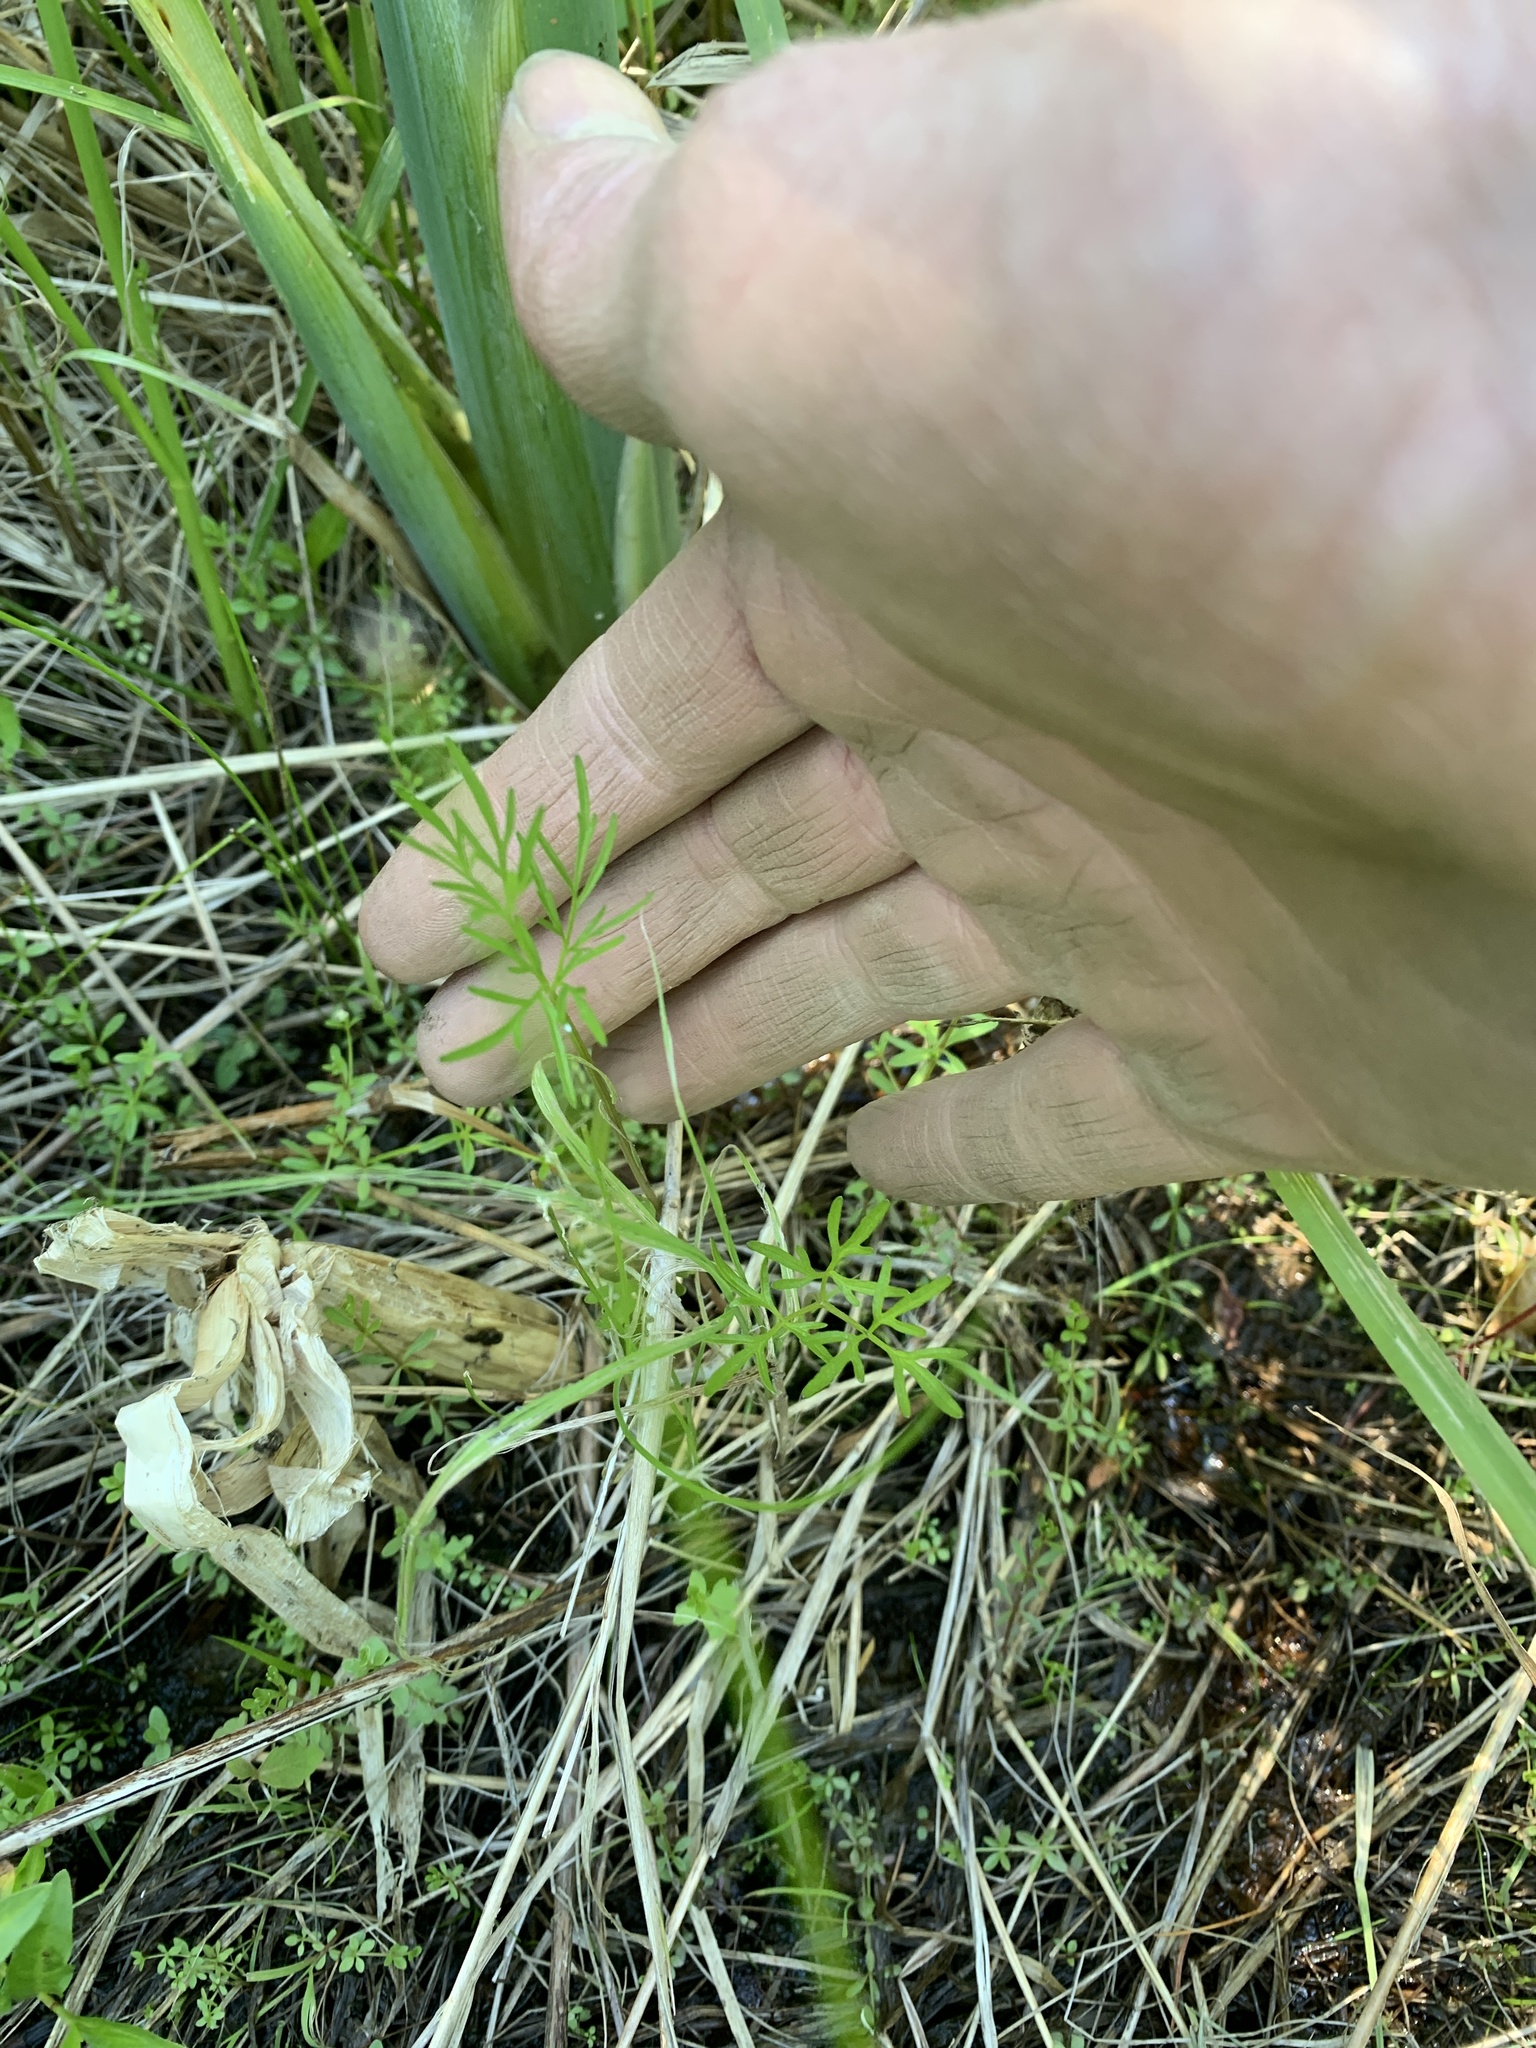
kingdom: Plantae
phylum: Tracheophyta
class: Magnoliopsida
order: Apiales
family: Apiaceae
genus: Cicuta
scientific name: Cicuta bulbifera
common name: Bulb-bearing water-hemlock
